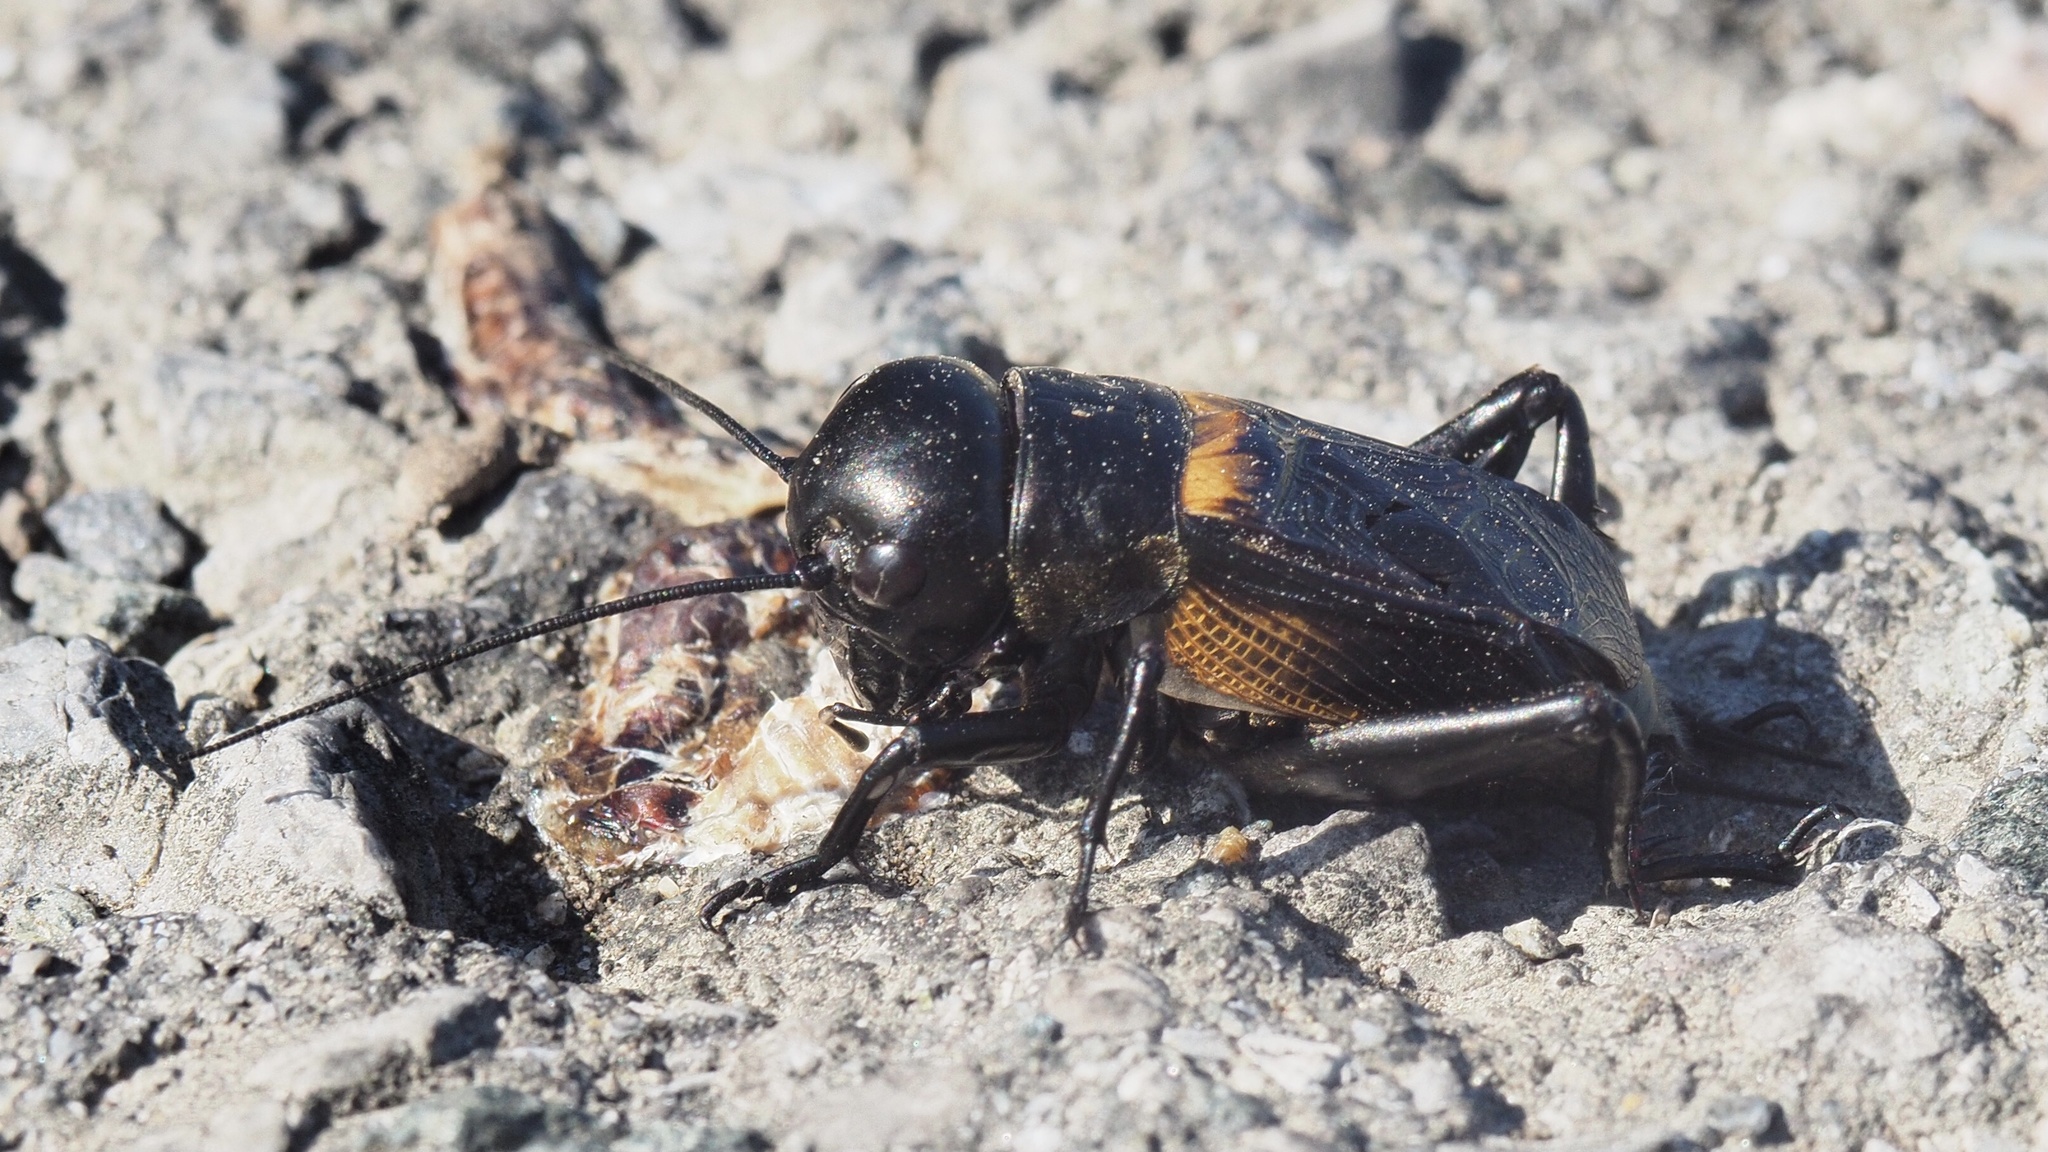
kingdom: Animalia
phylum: Arthropoda
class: Insecta
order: Orthoptera
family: Gryllidae
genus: Gryllus
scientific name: Gryllus campestris
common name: Field cricket
